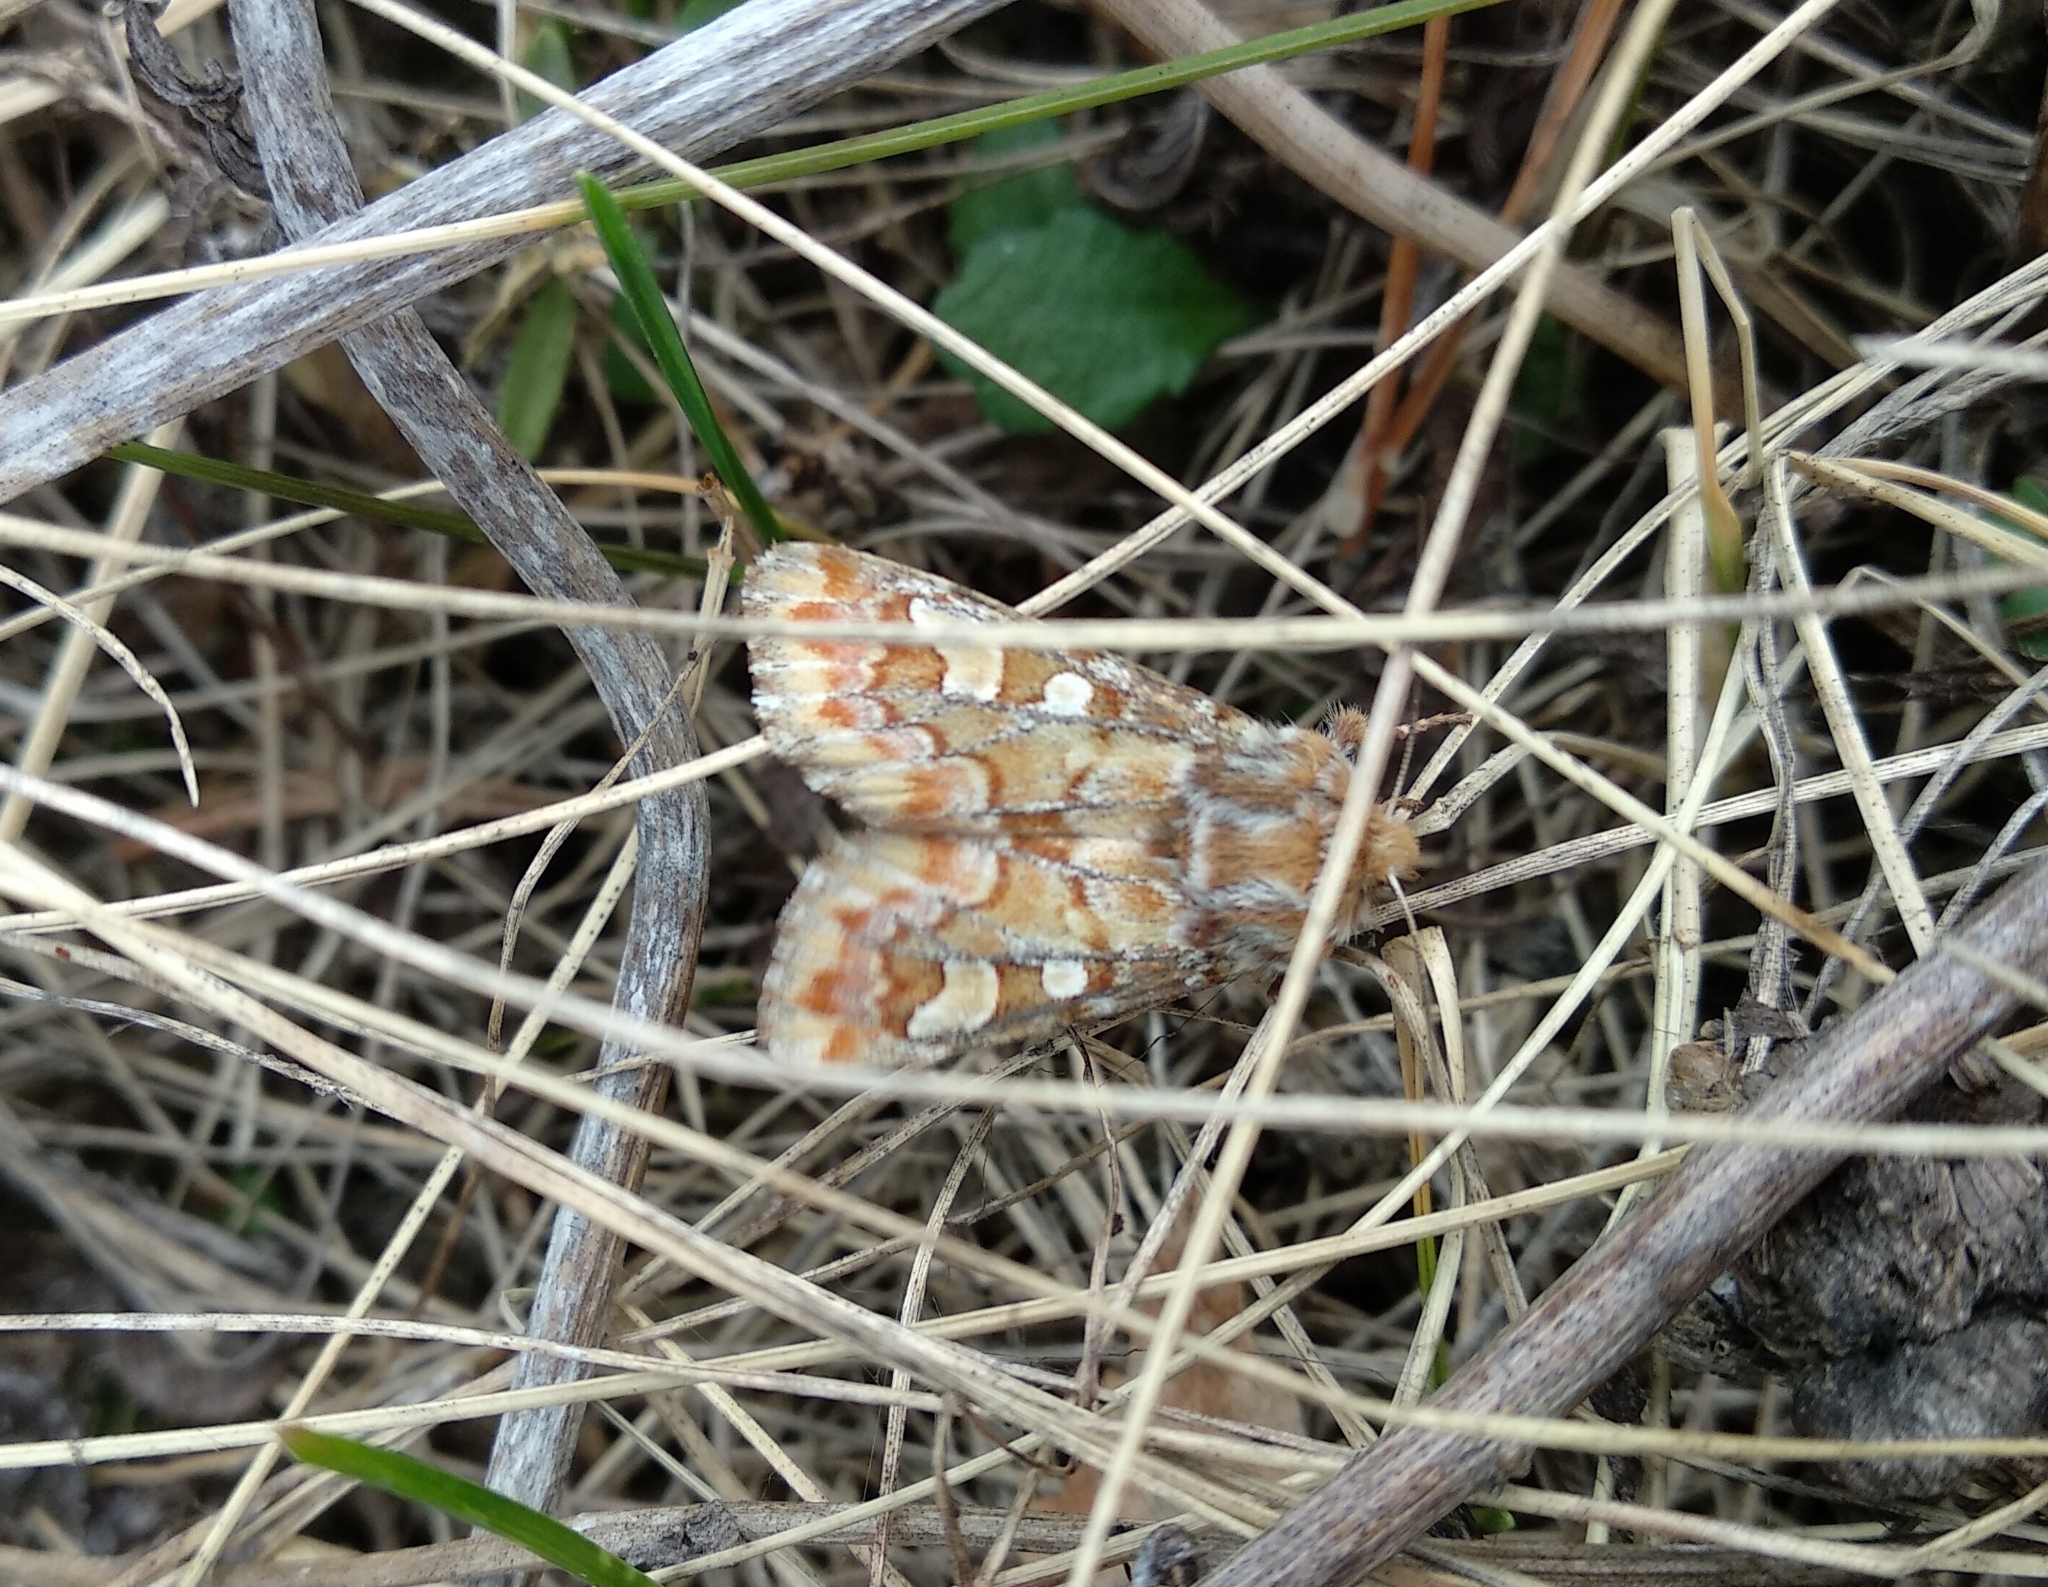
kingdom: Animalia
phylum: Arthropoda
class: Insecta
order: Lepidoptera
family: Noctuidae
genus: Panolis
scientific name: Panolis flammea
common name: Pine beauty
